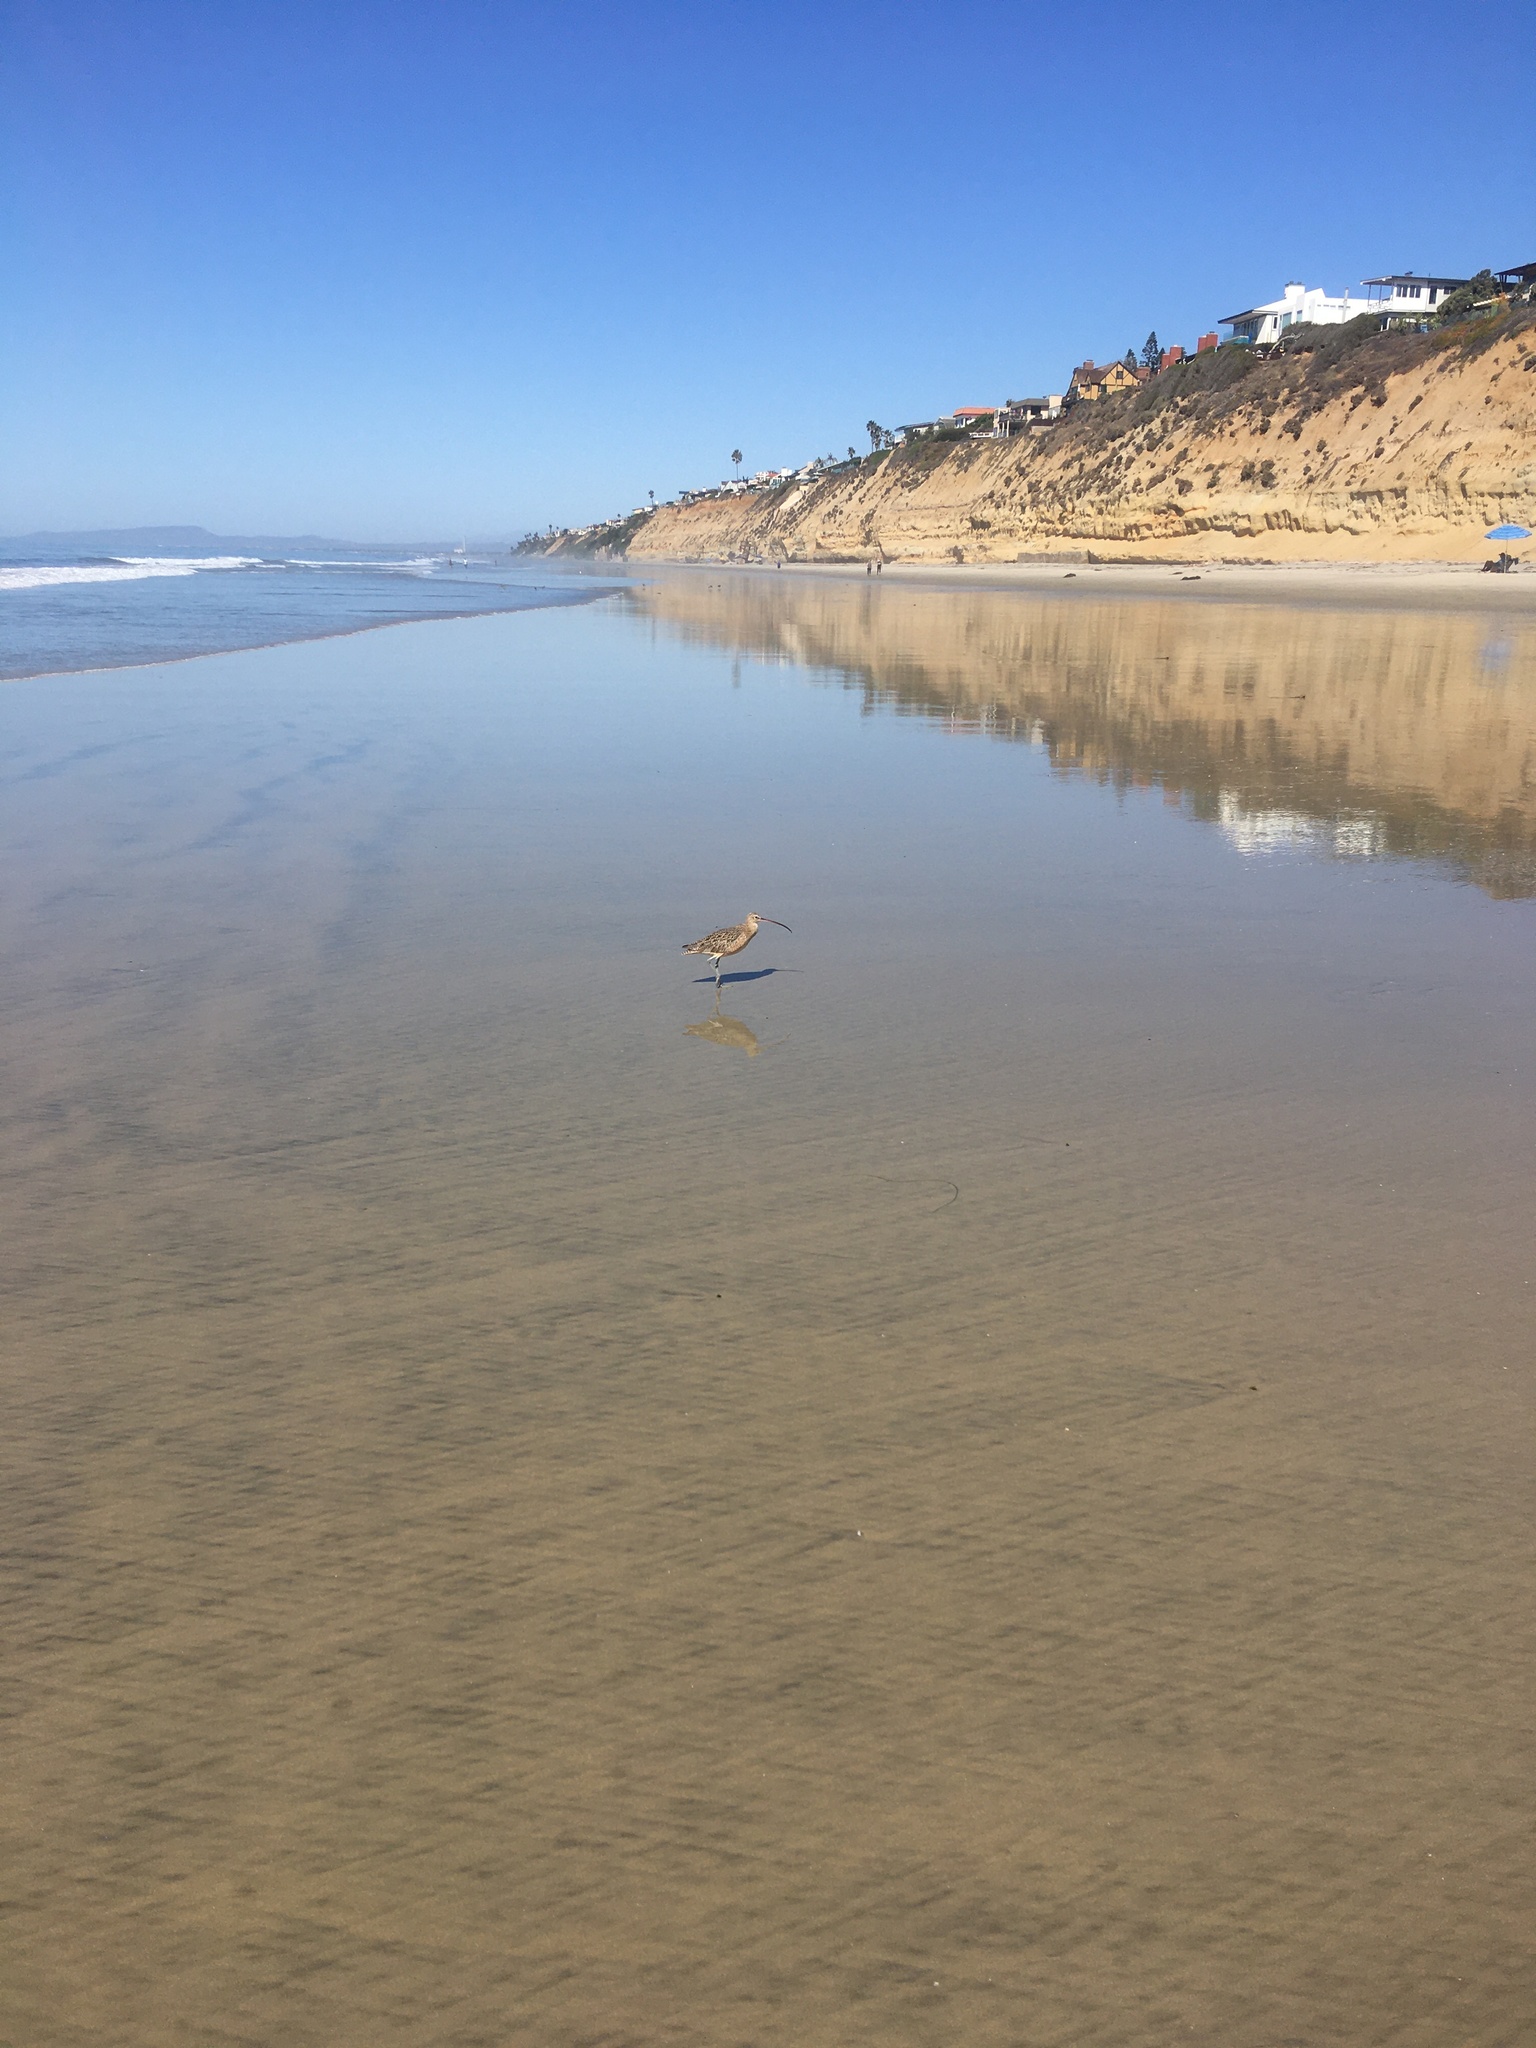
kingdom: Animalia
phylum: Chordata
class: Aves
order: Charadriiformes
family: Scolopacidae
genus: Numenius
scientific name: Numenius americanus
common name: Long-billed curlew
